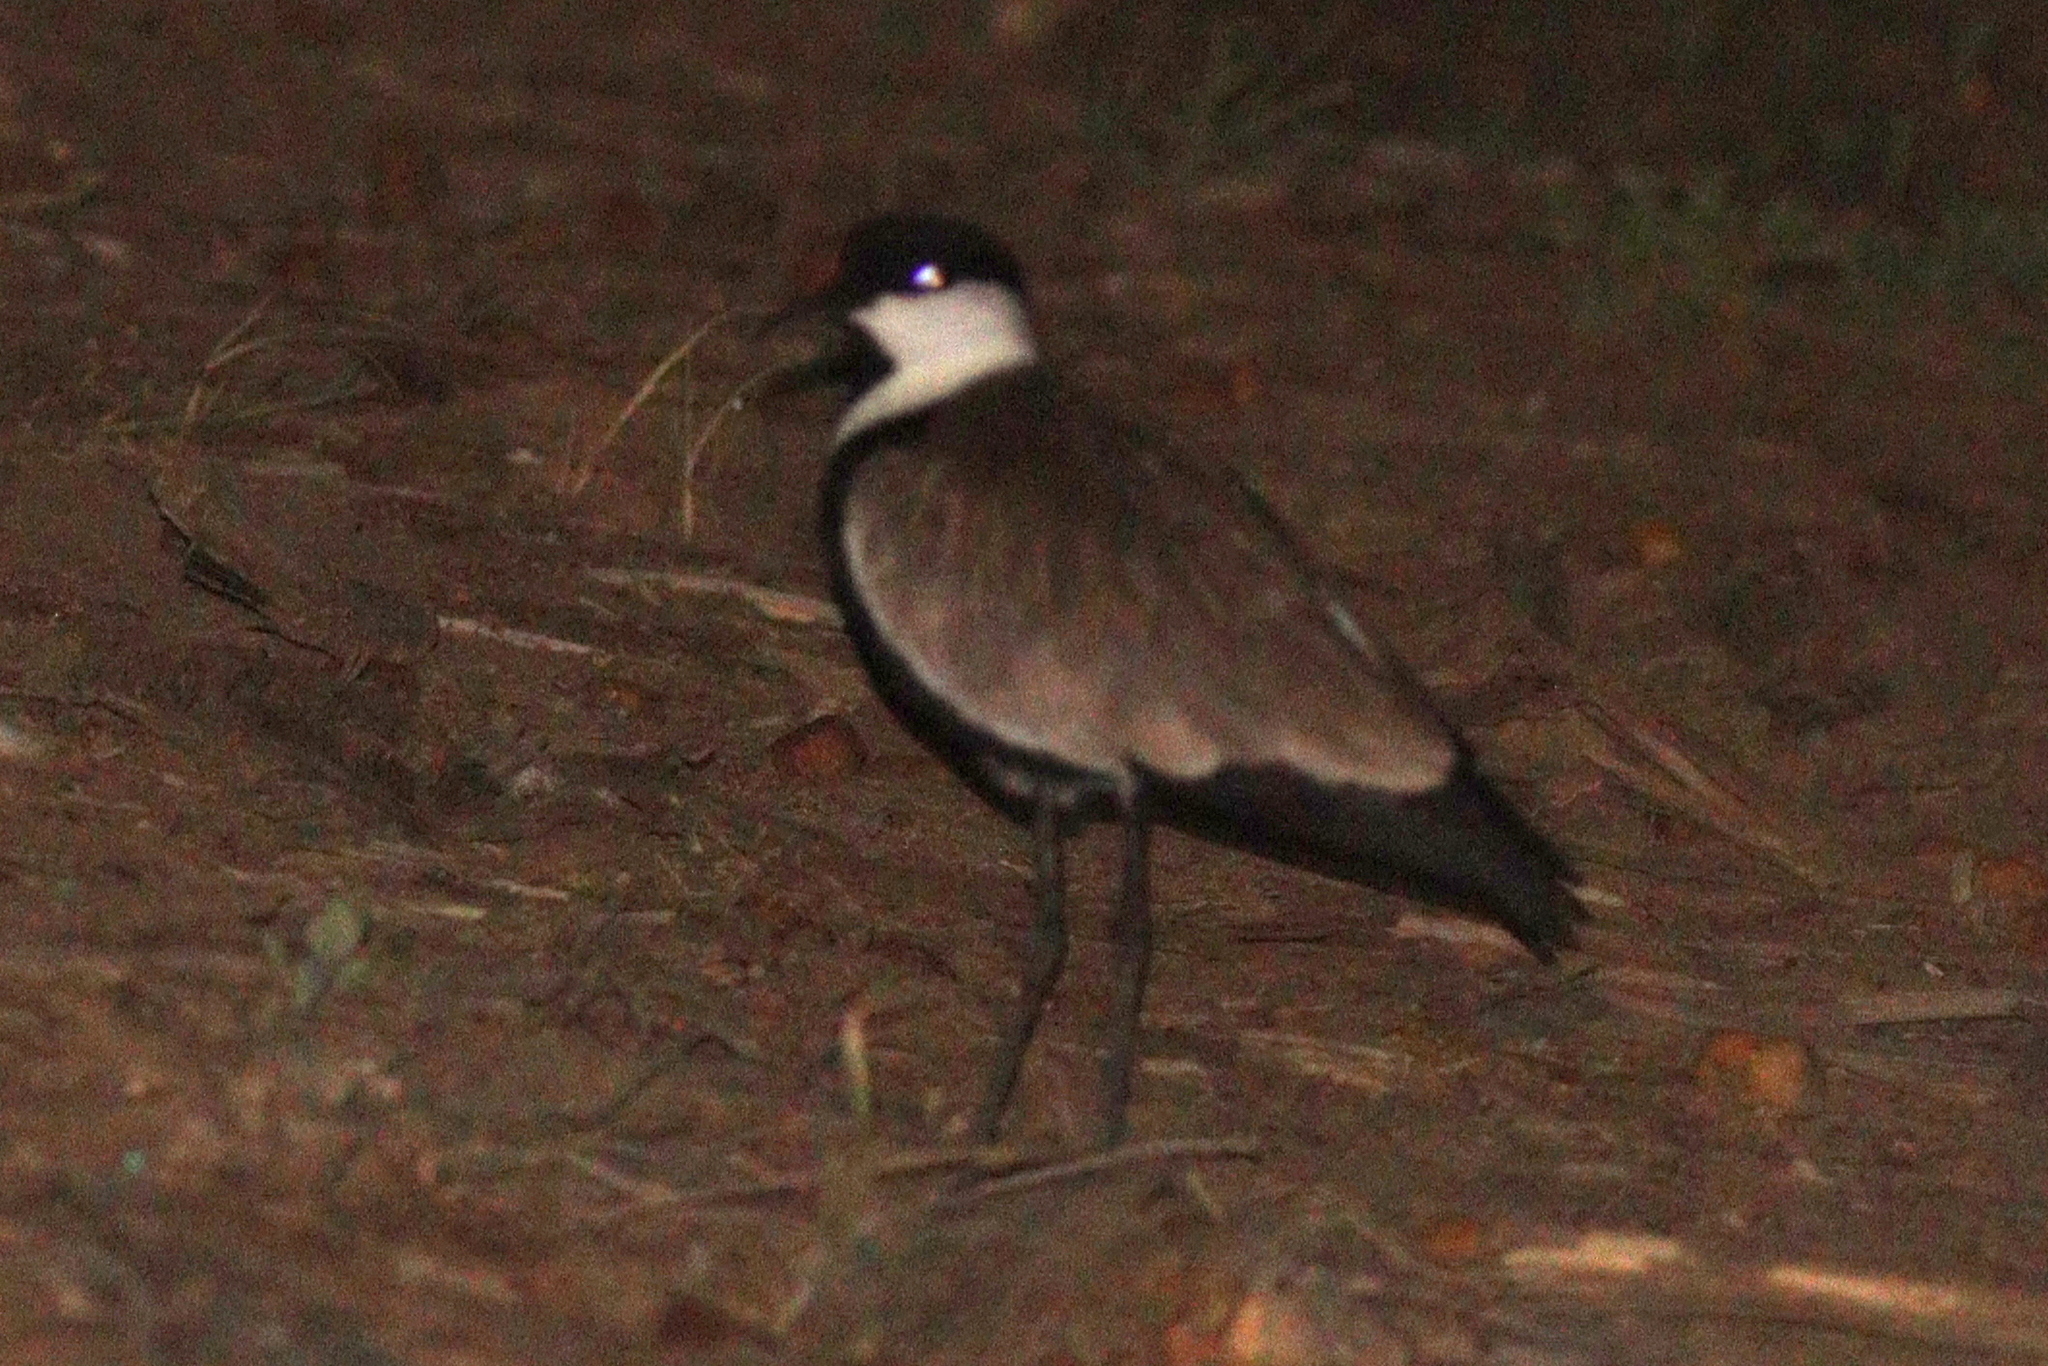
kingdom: Animalia
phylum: Chordata
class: Aves
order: Charadriiformes
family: Charadriidae
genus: Vanellus
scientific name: Vanellus spinosus
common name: Spur-winged lapwing
